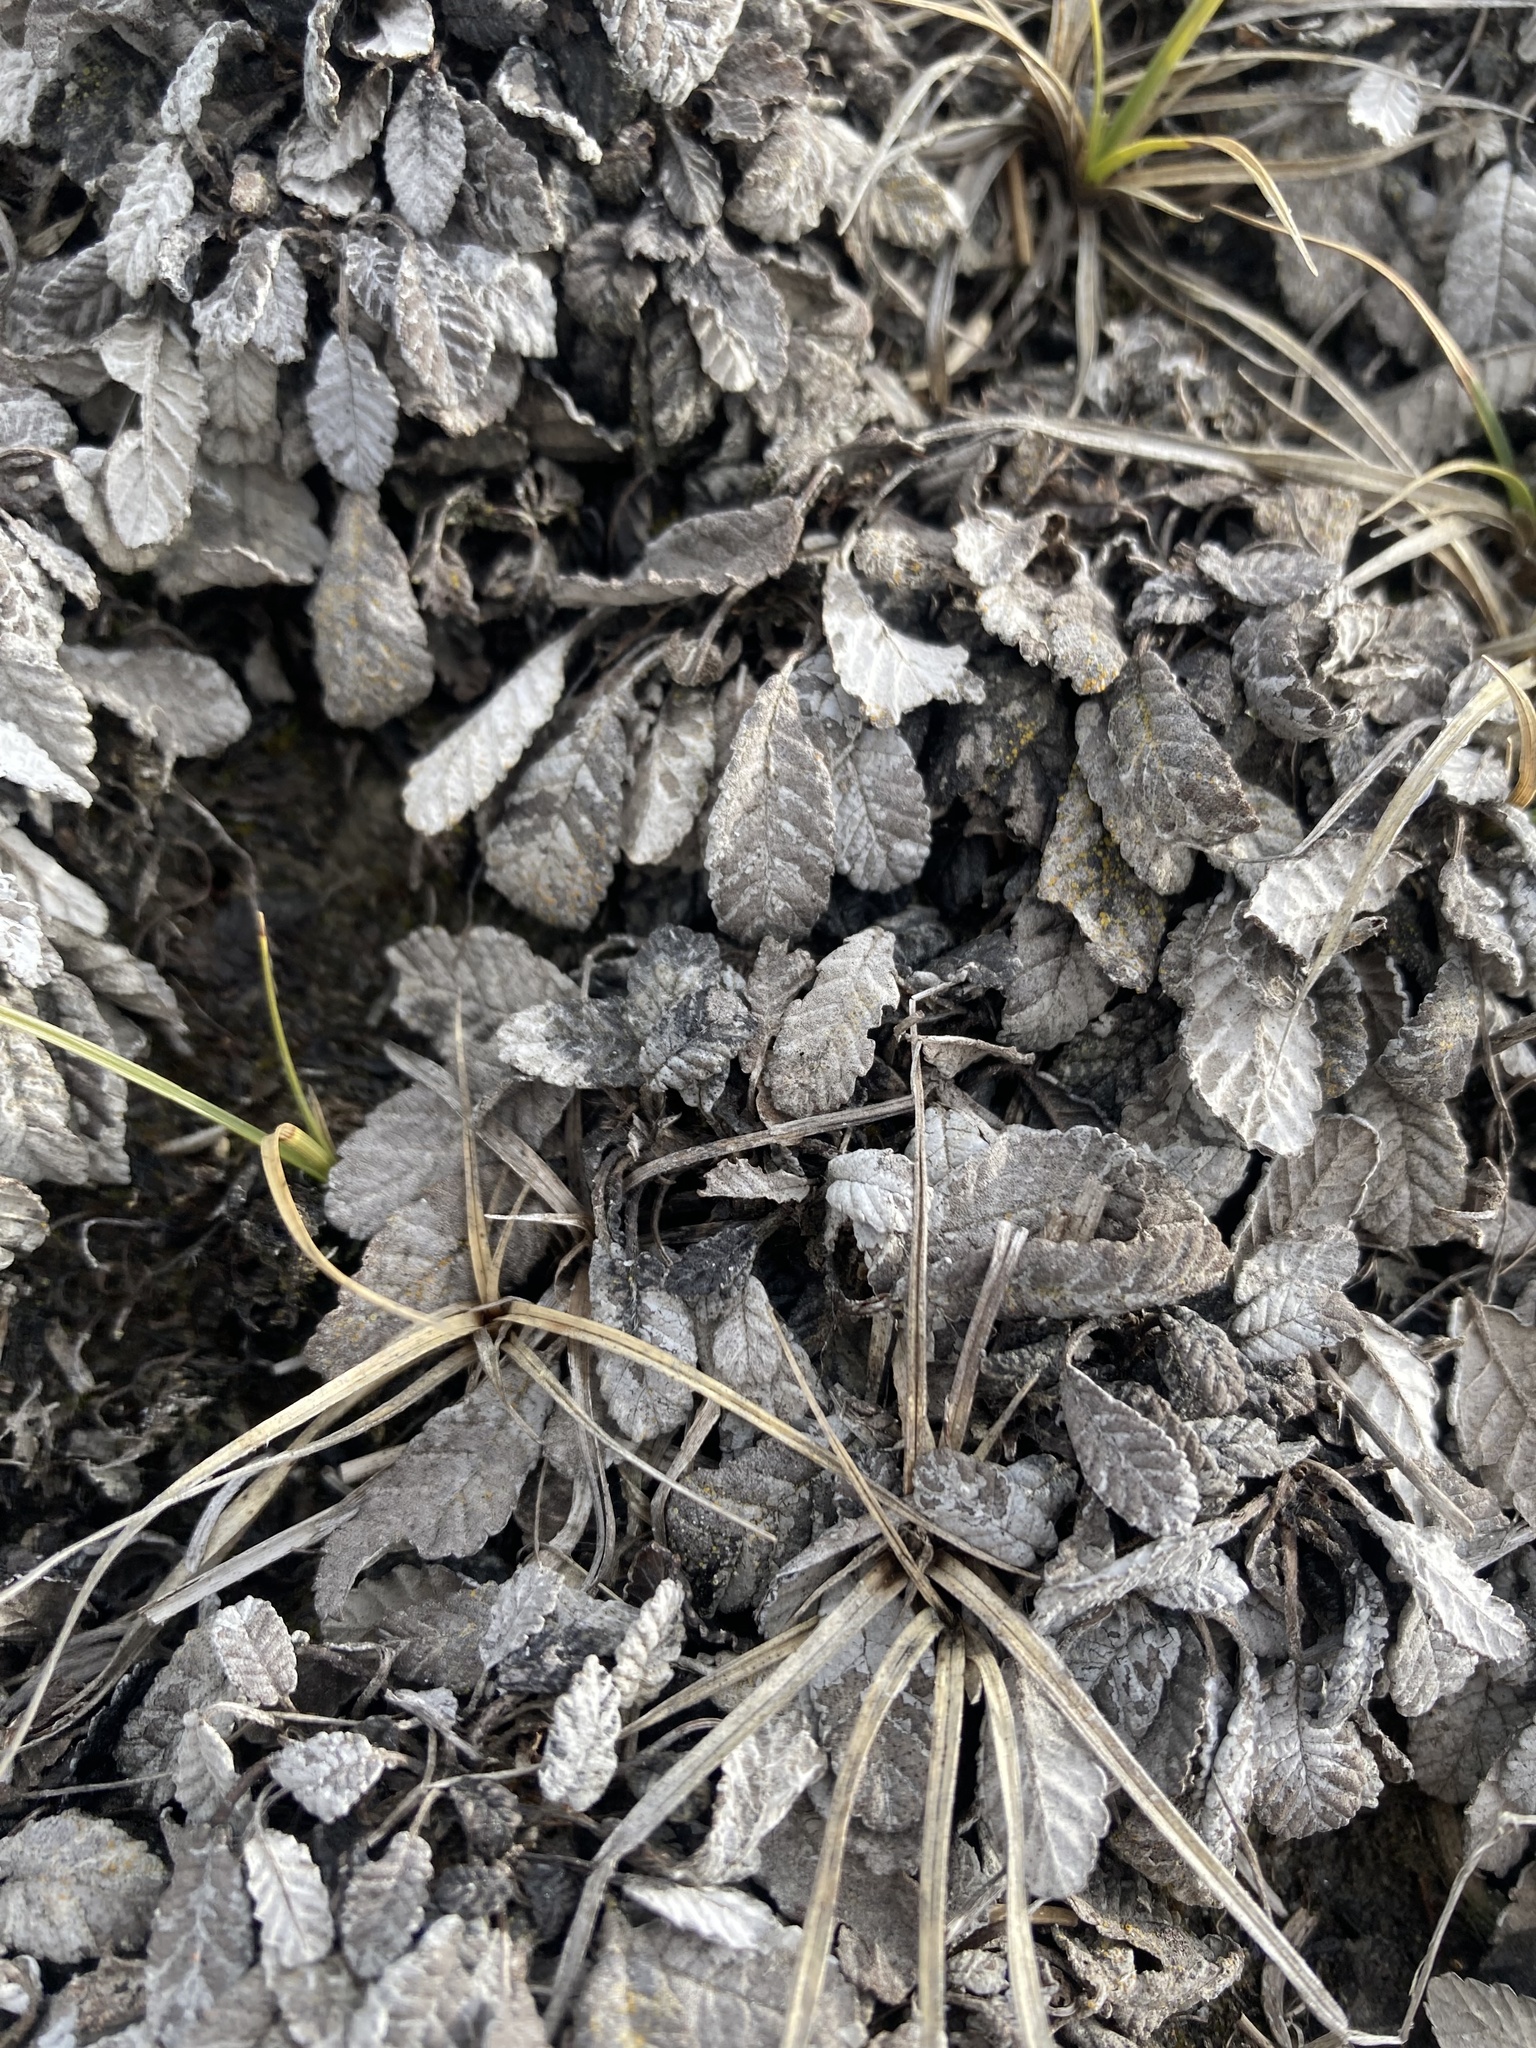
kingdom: Plantae
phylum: Tracheophyta
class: Magnoliopsida
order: Rosales
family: Rosaceae
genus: Dryas
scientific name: Dryas drummondii
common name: Drummond's dryad
